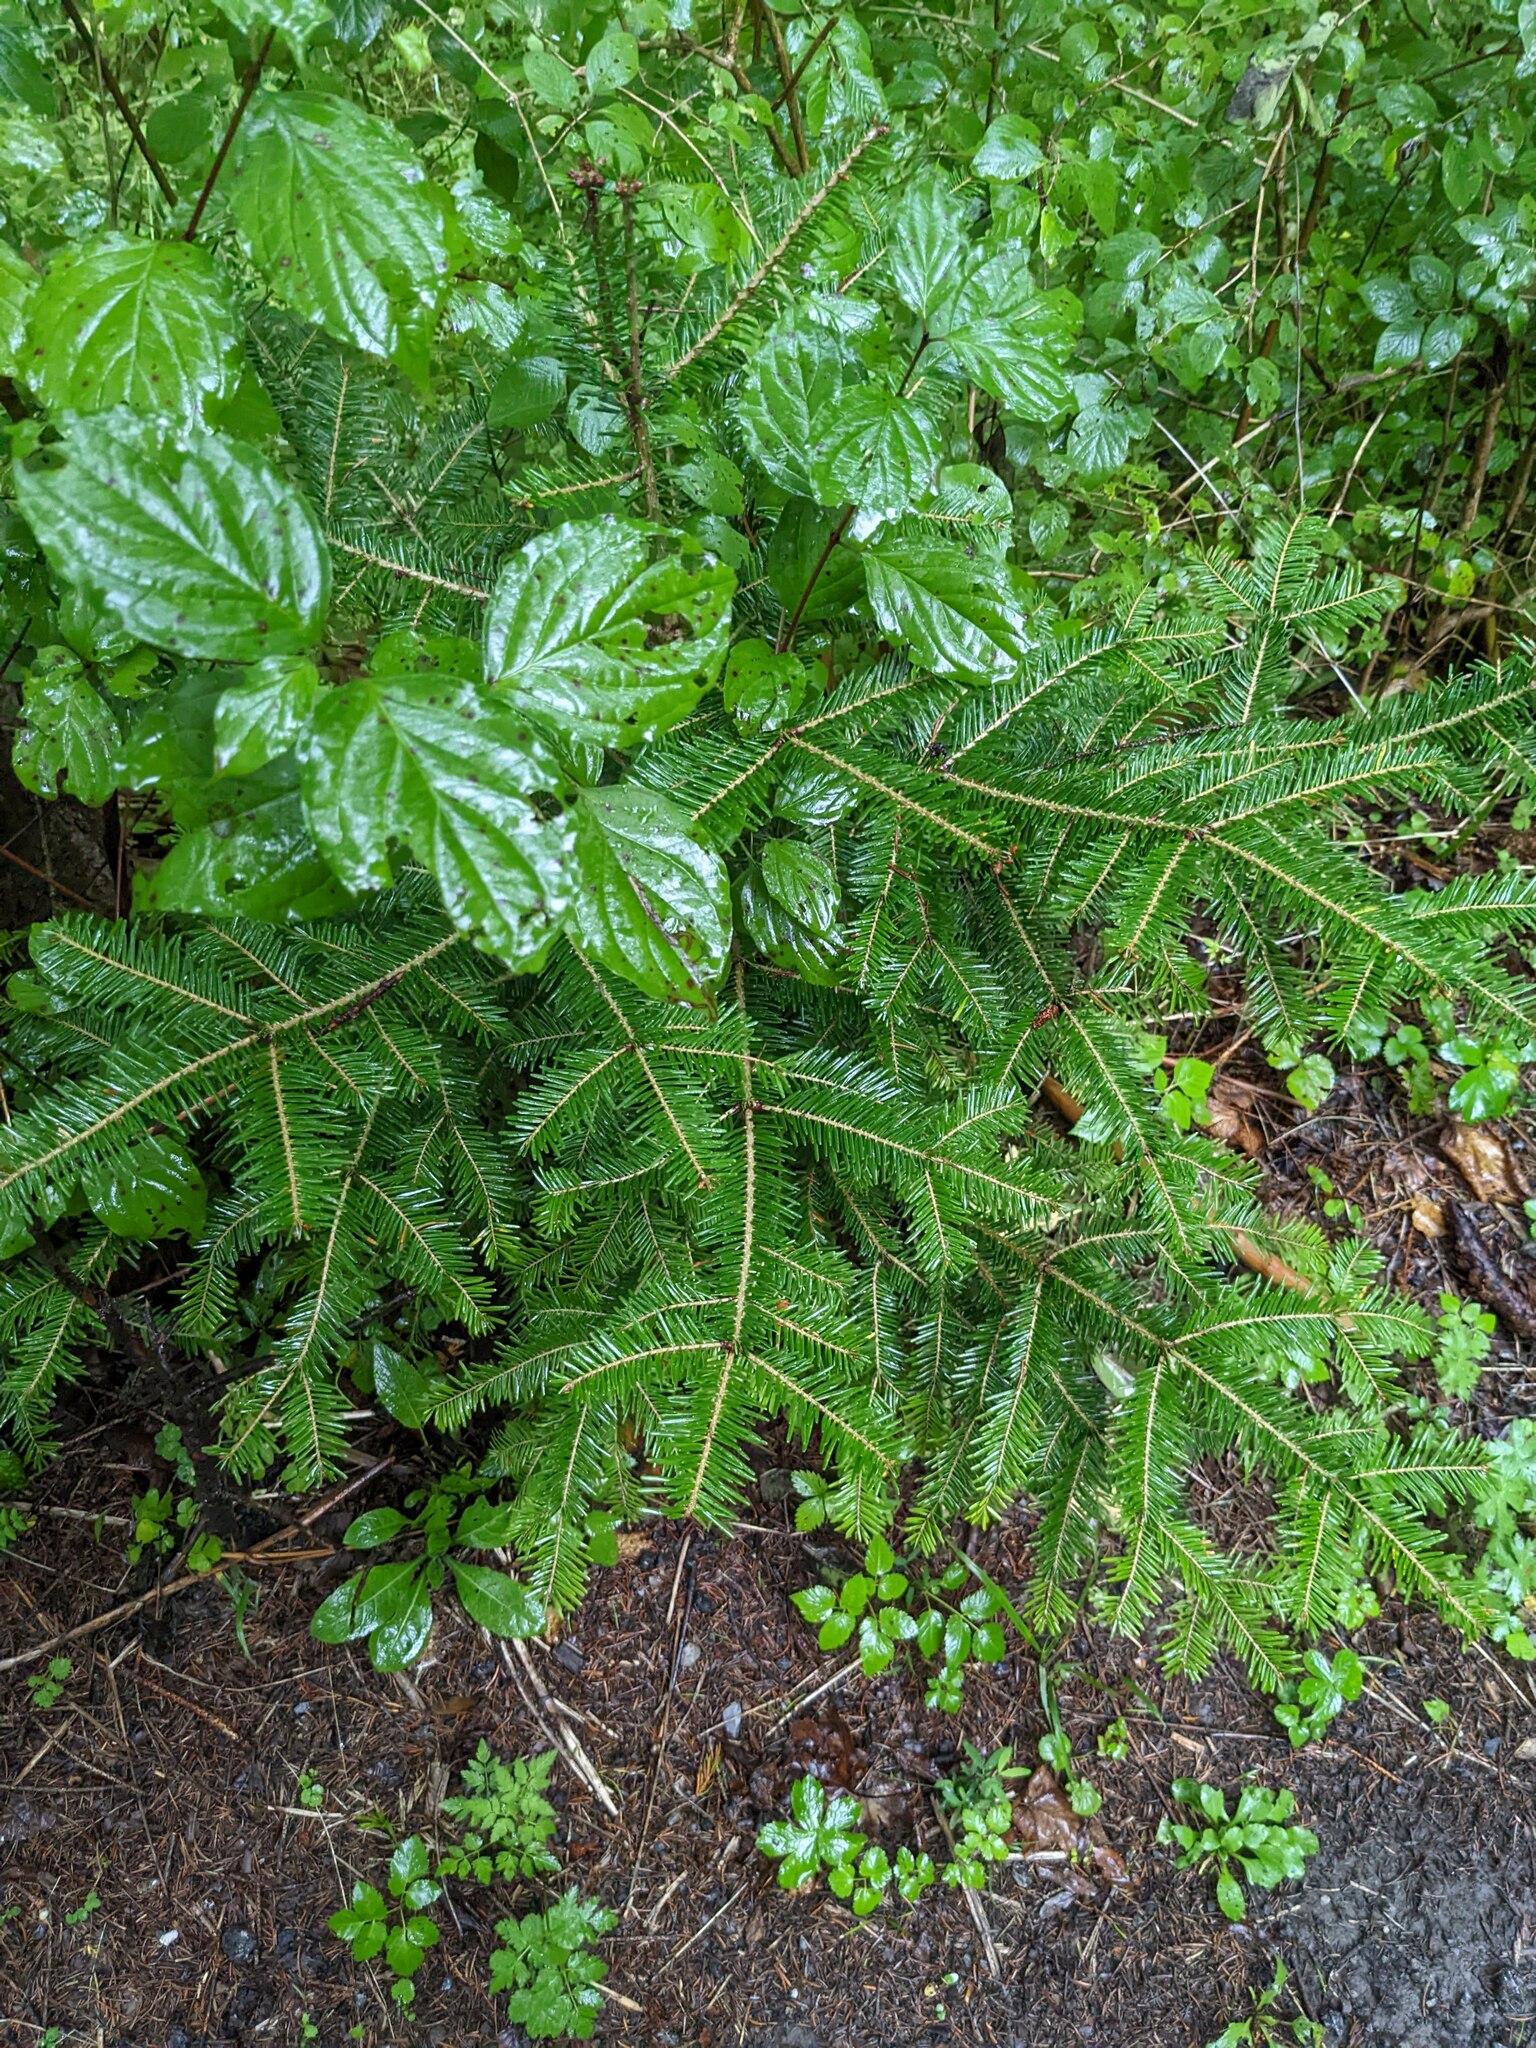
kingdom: Plantae
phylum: Tracheophyta
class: Pinopsida
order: Pinales
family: Pinaceae
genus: Abies
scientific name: Abies alba
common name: Silver fir
